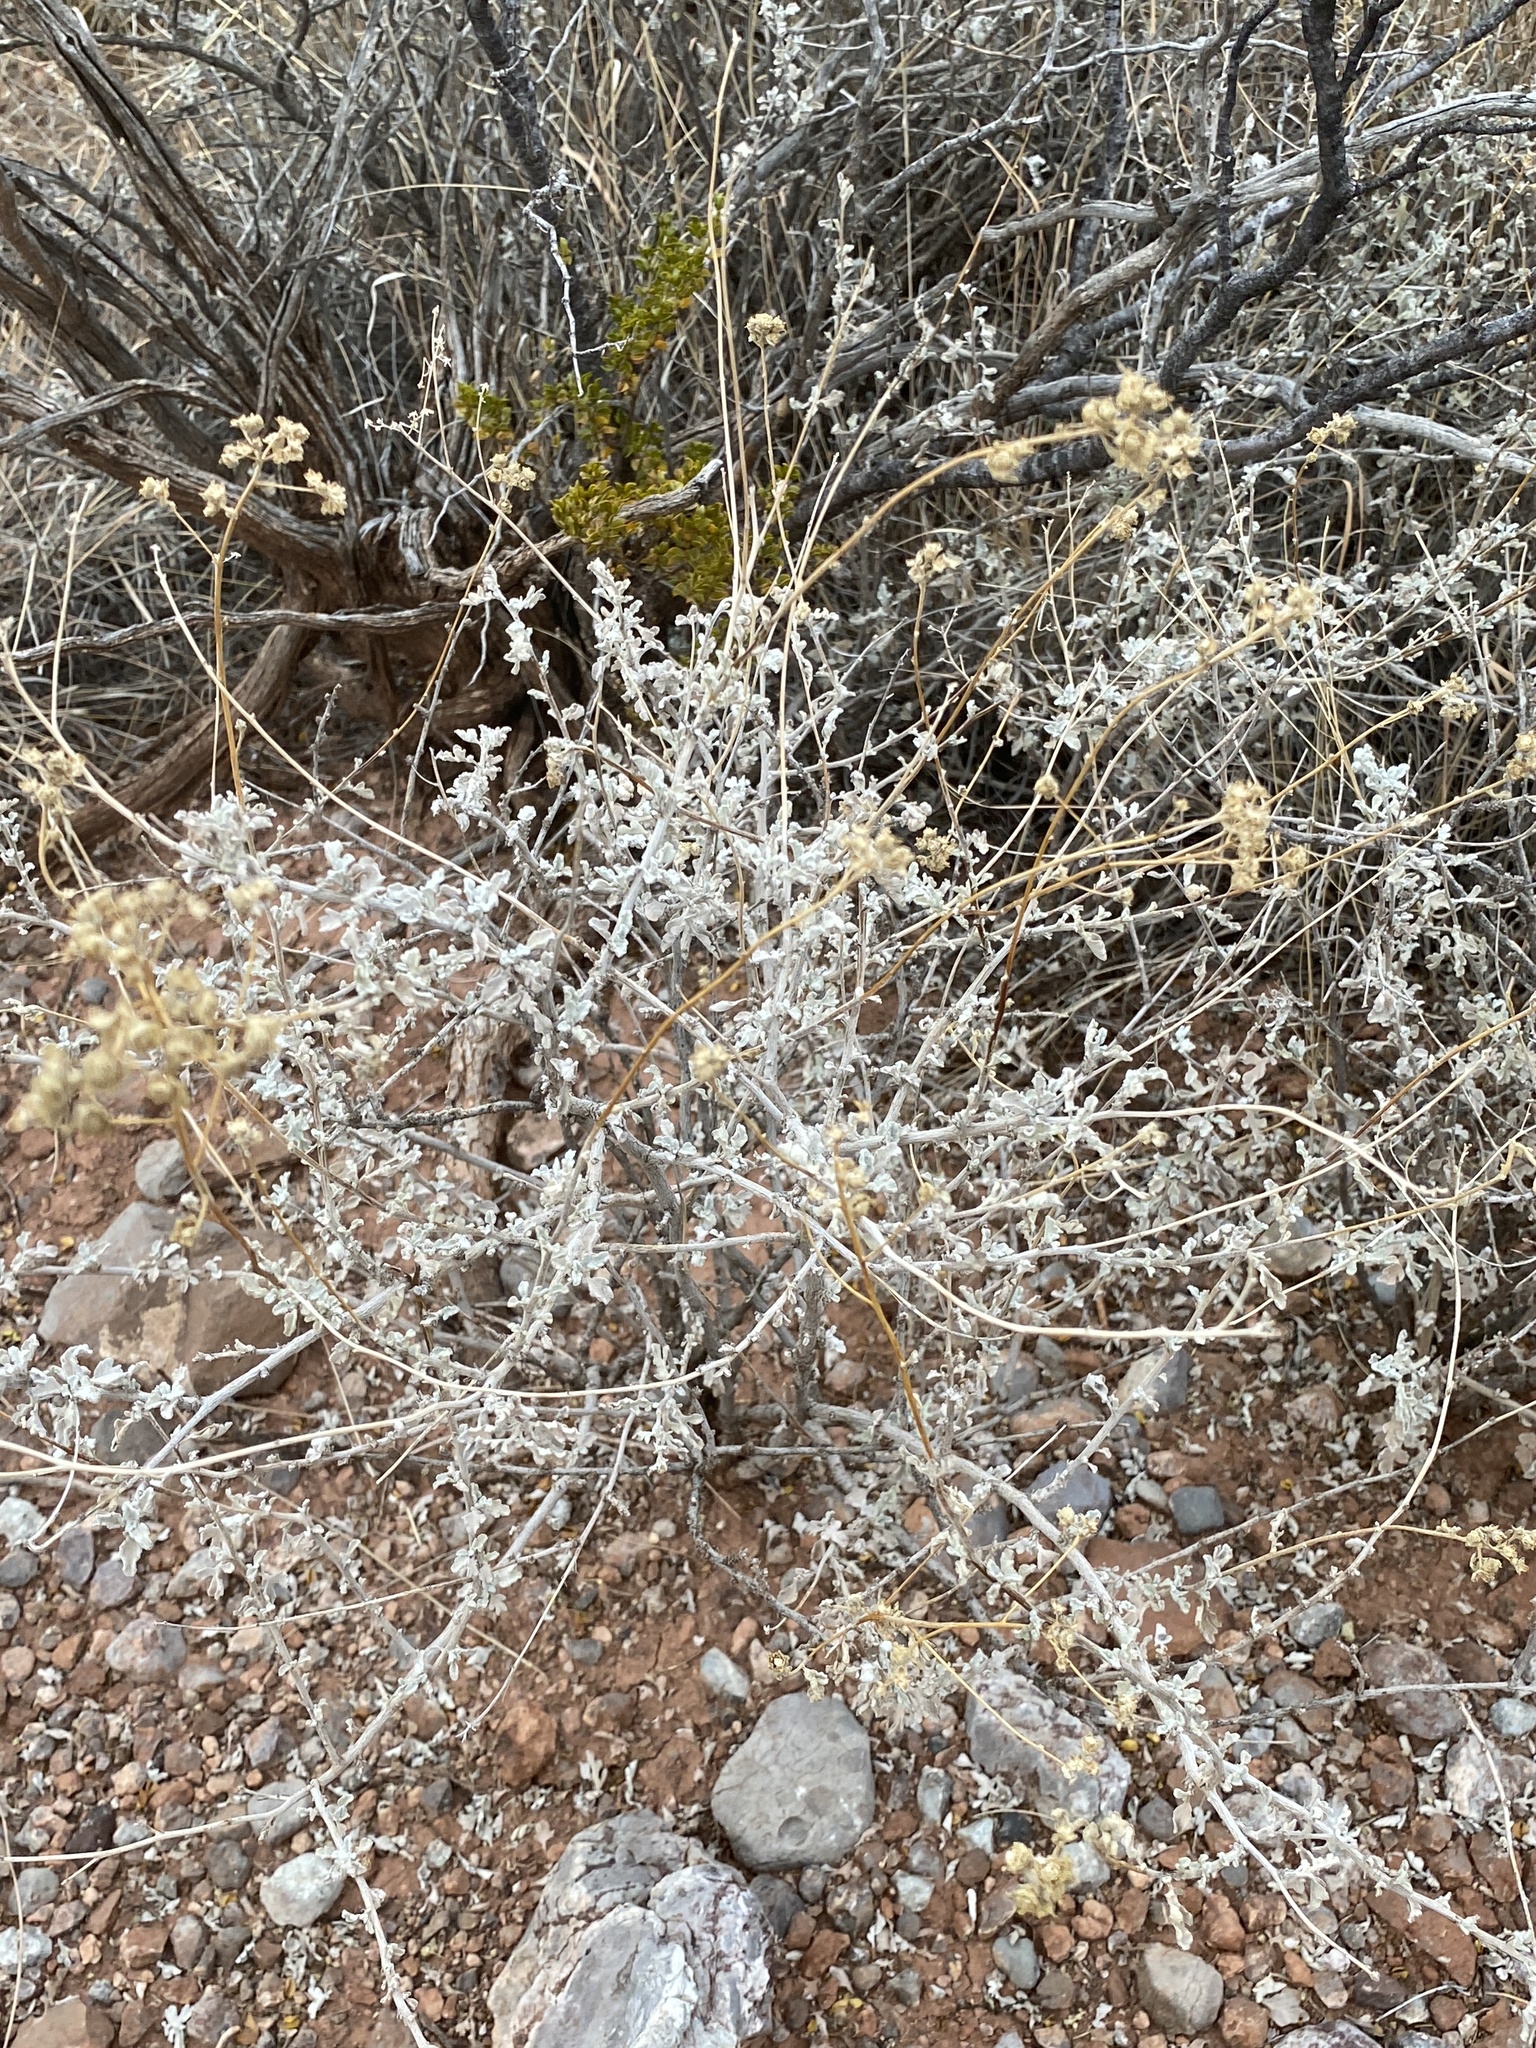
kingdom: Plantae
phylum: Tracheophyta
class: Magnoliopsida
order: Asterales
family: Asteraceae
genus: Parthenium
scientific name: Parthenium incanum
